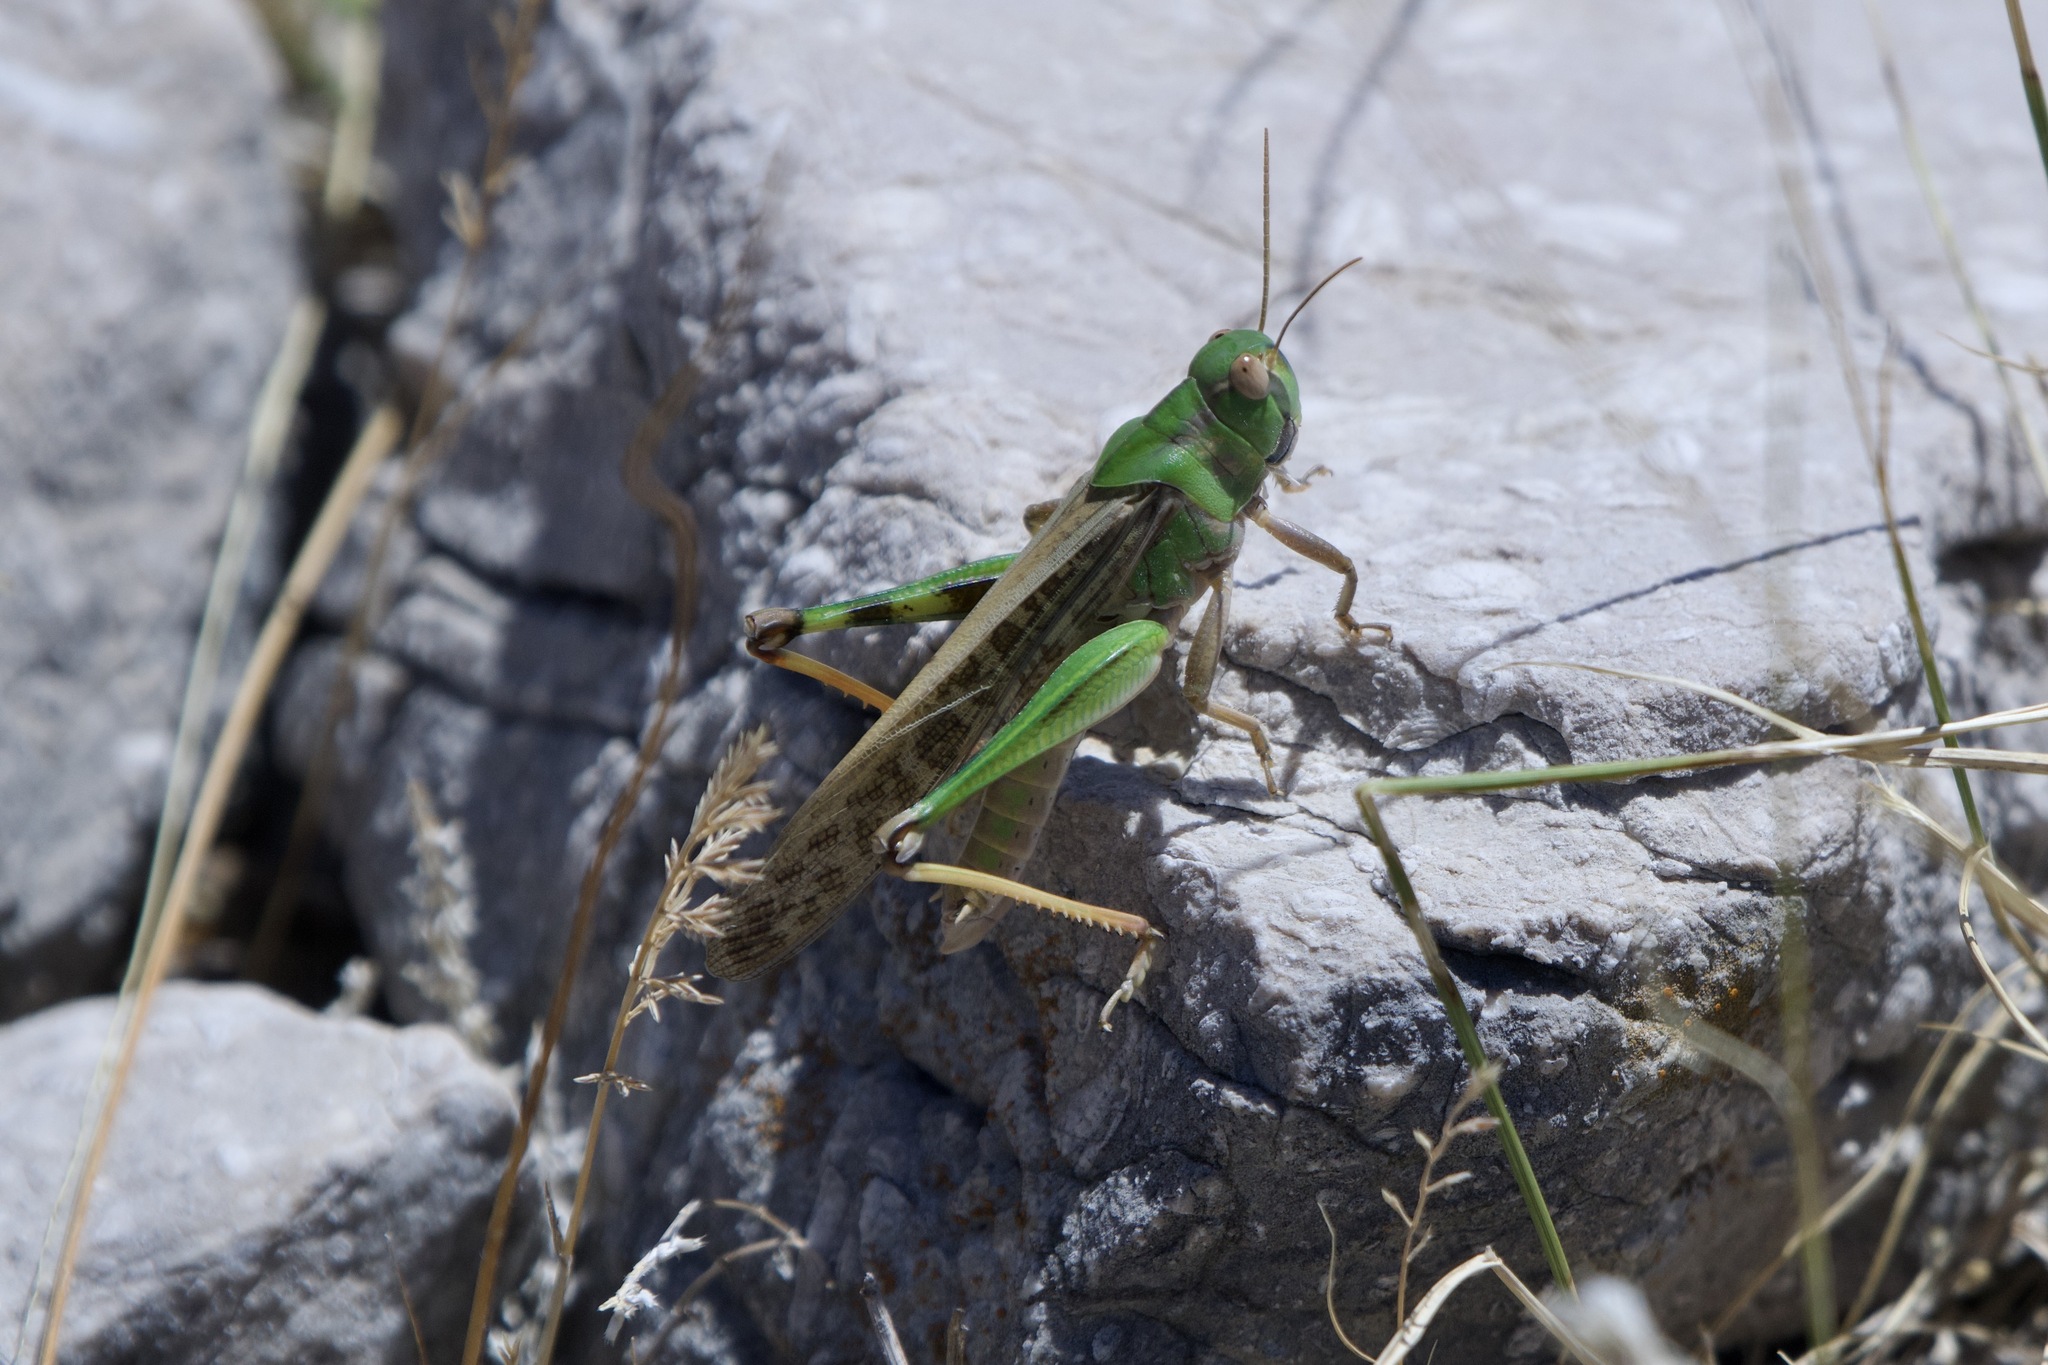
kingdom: Animalia
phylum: Arthropoda
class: Insecta
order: Orthoptera
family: Acrididae
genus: Locusta
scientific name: Locusta migratoria
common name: Migratory locust
